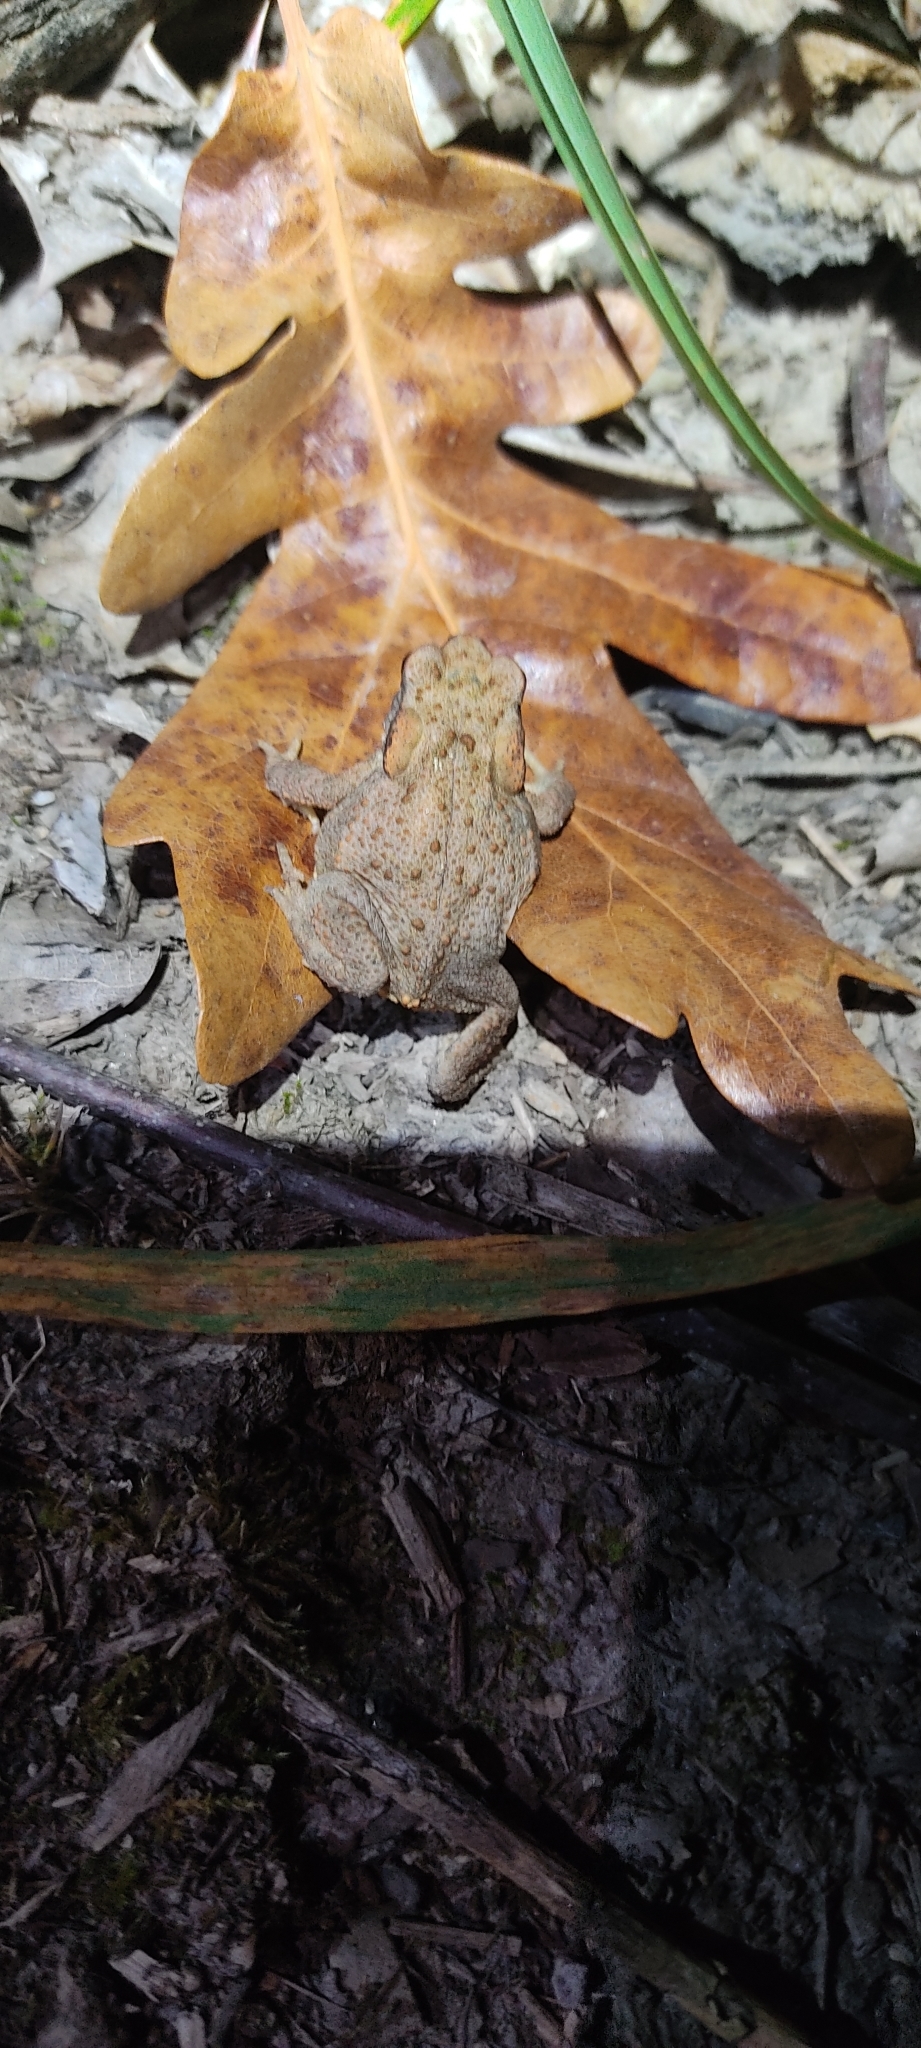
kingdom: Animalia
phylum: Chordata
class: Amphibia
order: Anura
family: Bufonidae
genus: Bufo
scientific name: Bufo spinosus
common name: Western common toad
